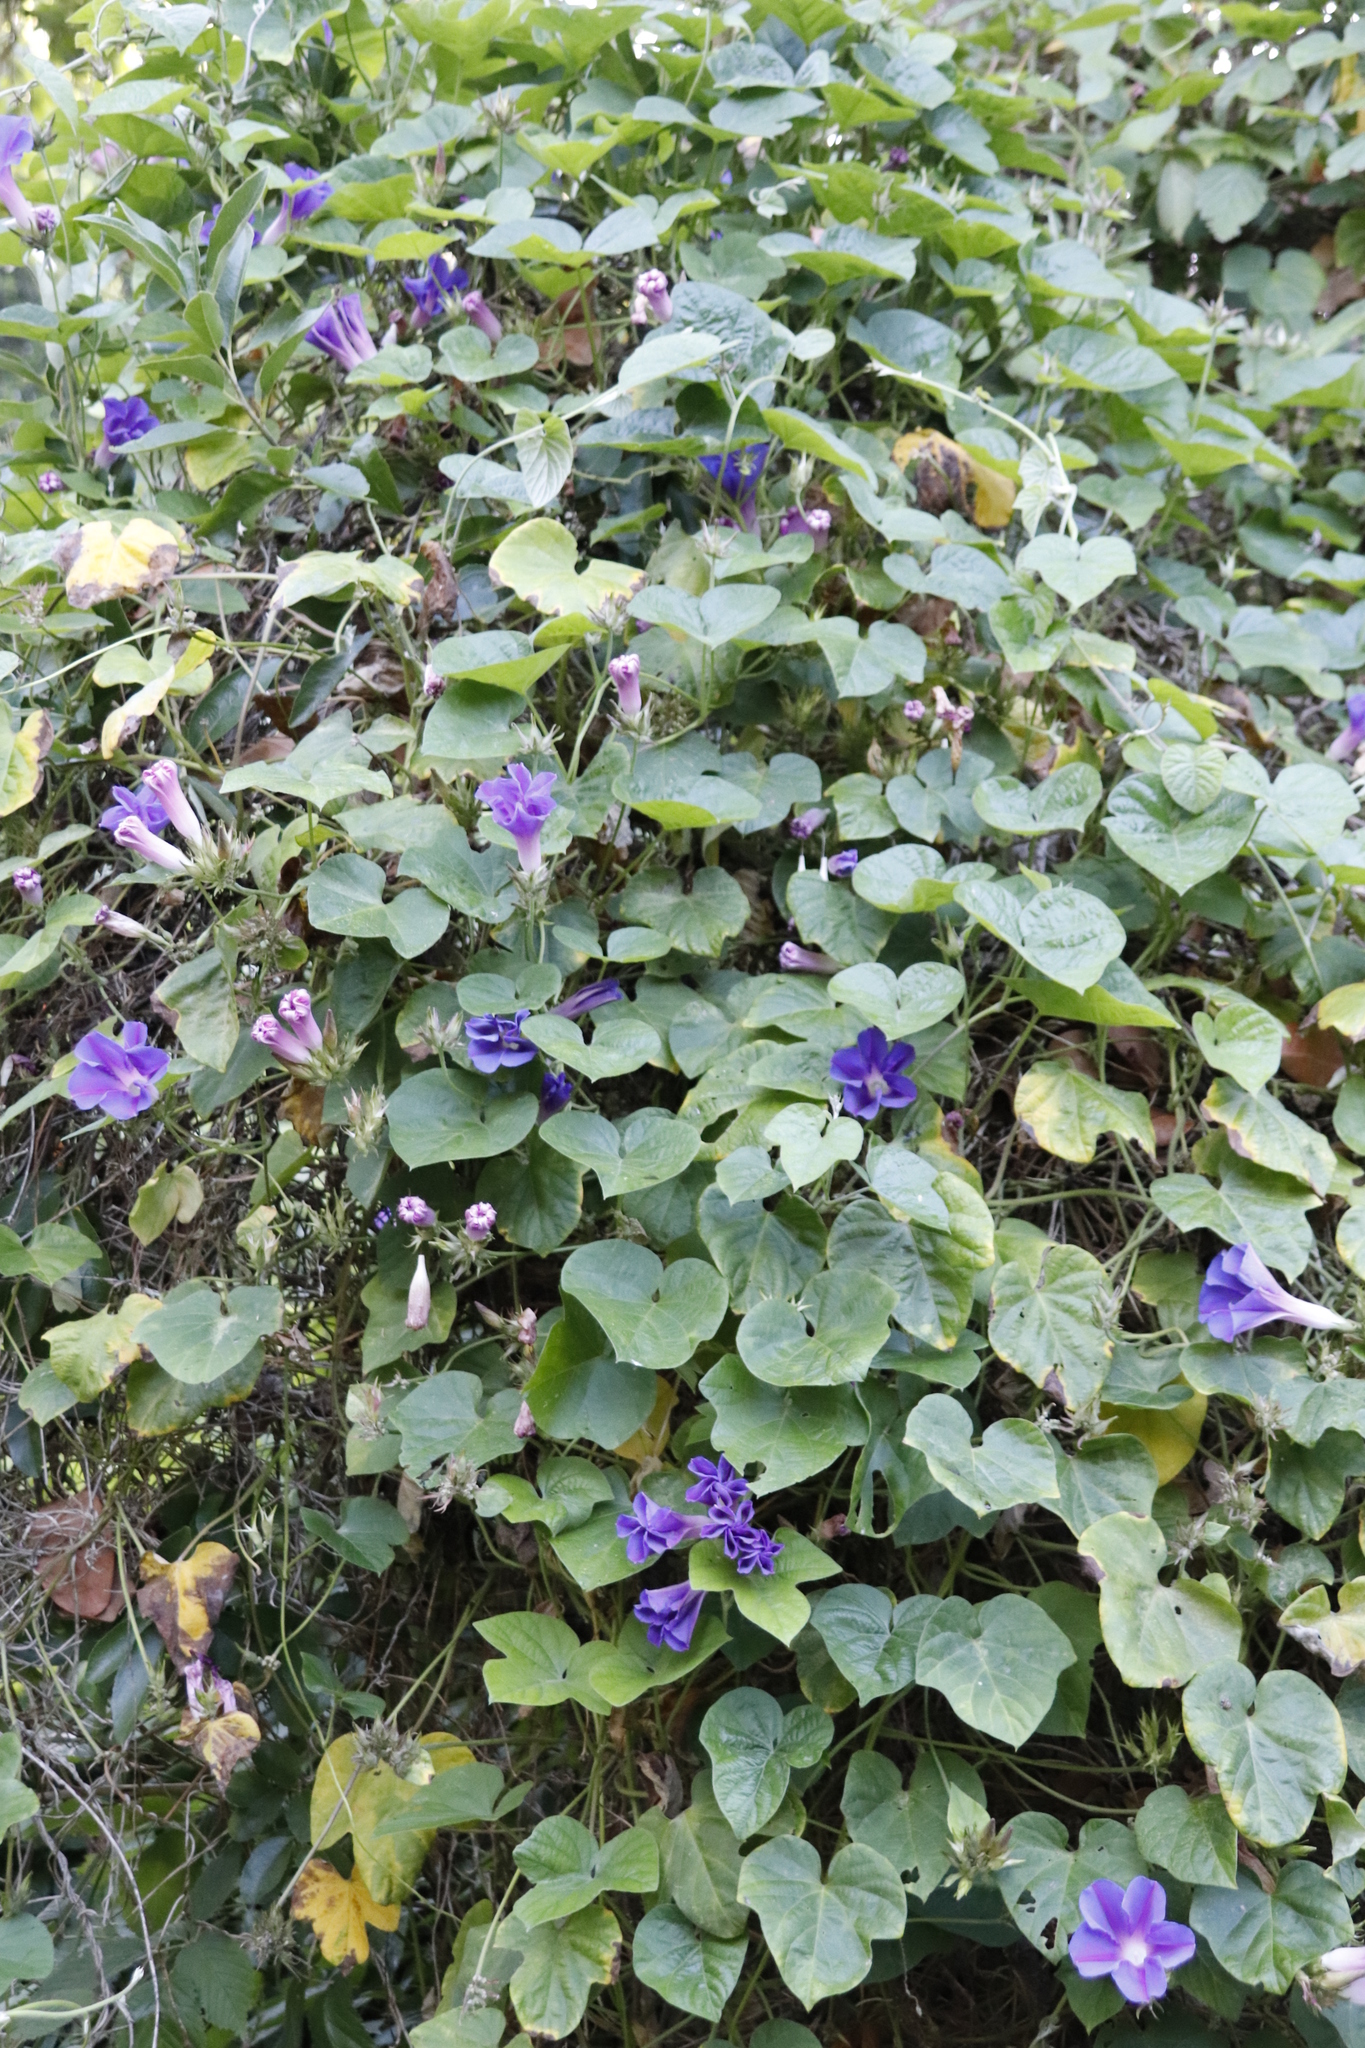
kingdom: Plantae
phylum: Tracheophyta
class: Magnoliopsida
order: Solanales
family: Convolvulaceae
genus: Ipomoea
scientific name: Ipomoea indica
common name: Blue dawnflower
